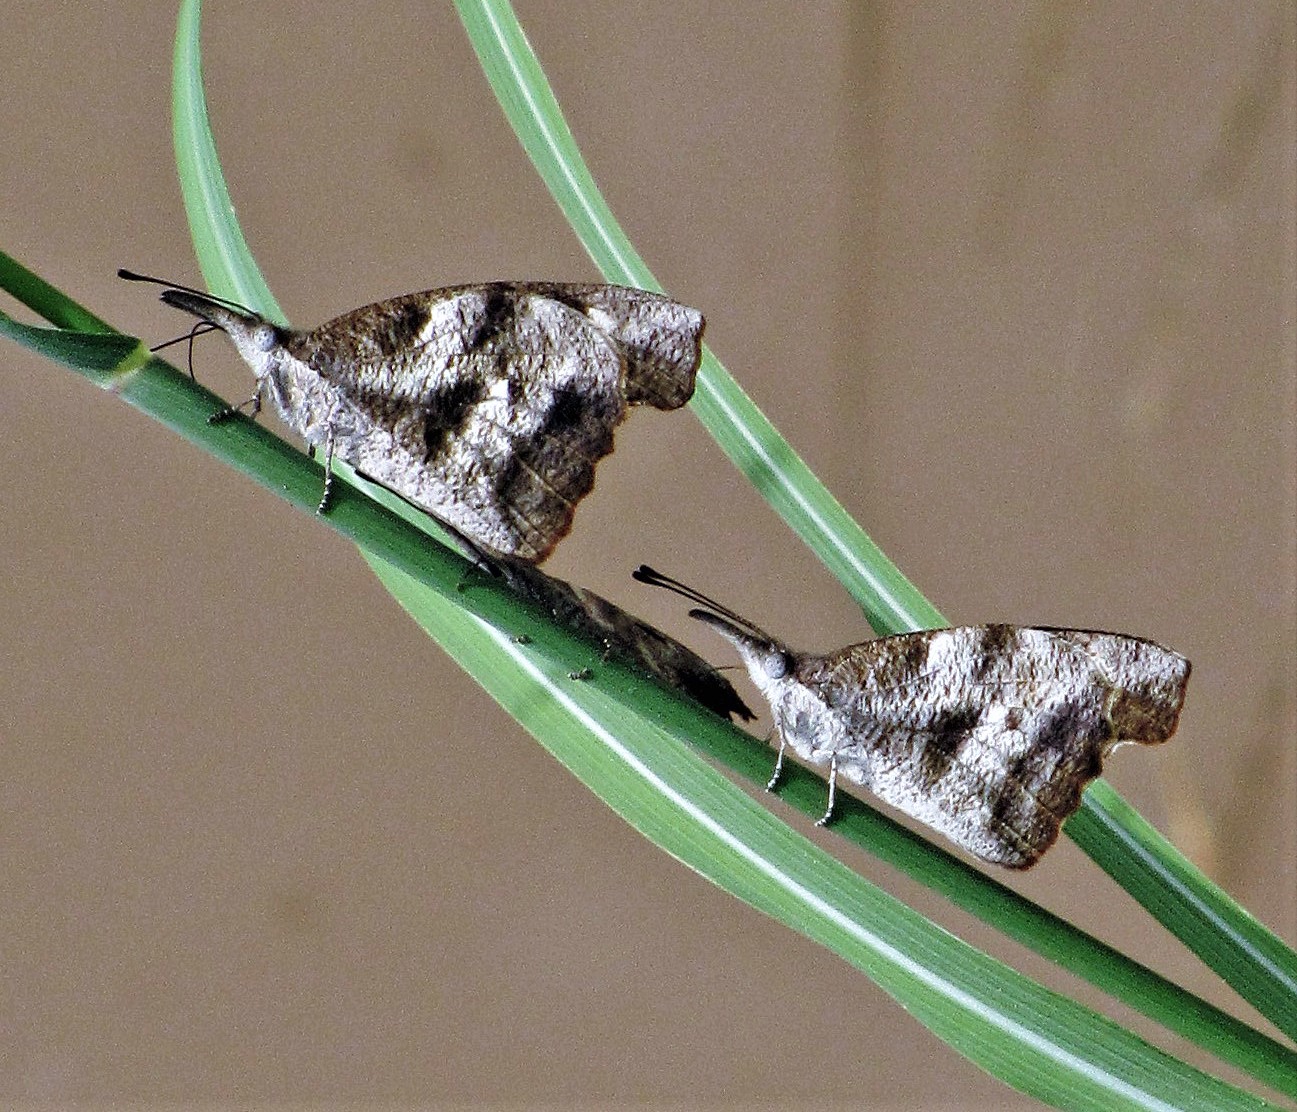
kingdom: Animalia
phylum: Arthropoda
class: Insecta
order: Lepidoptera
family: Nymphalidae
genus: Libytheana
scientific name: Libytheana carinenta
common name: American snout
